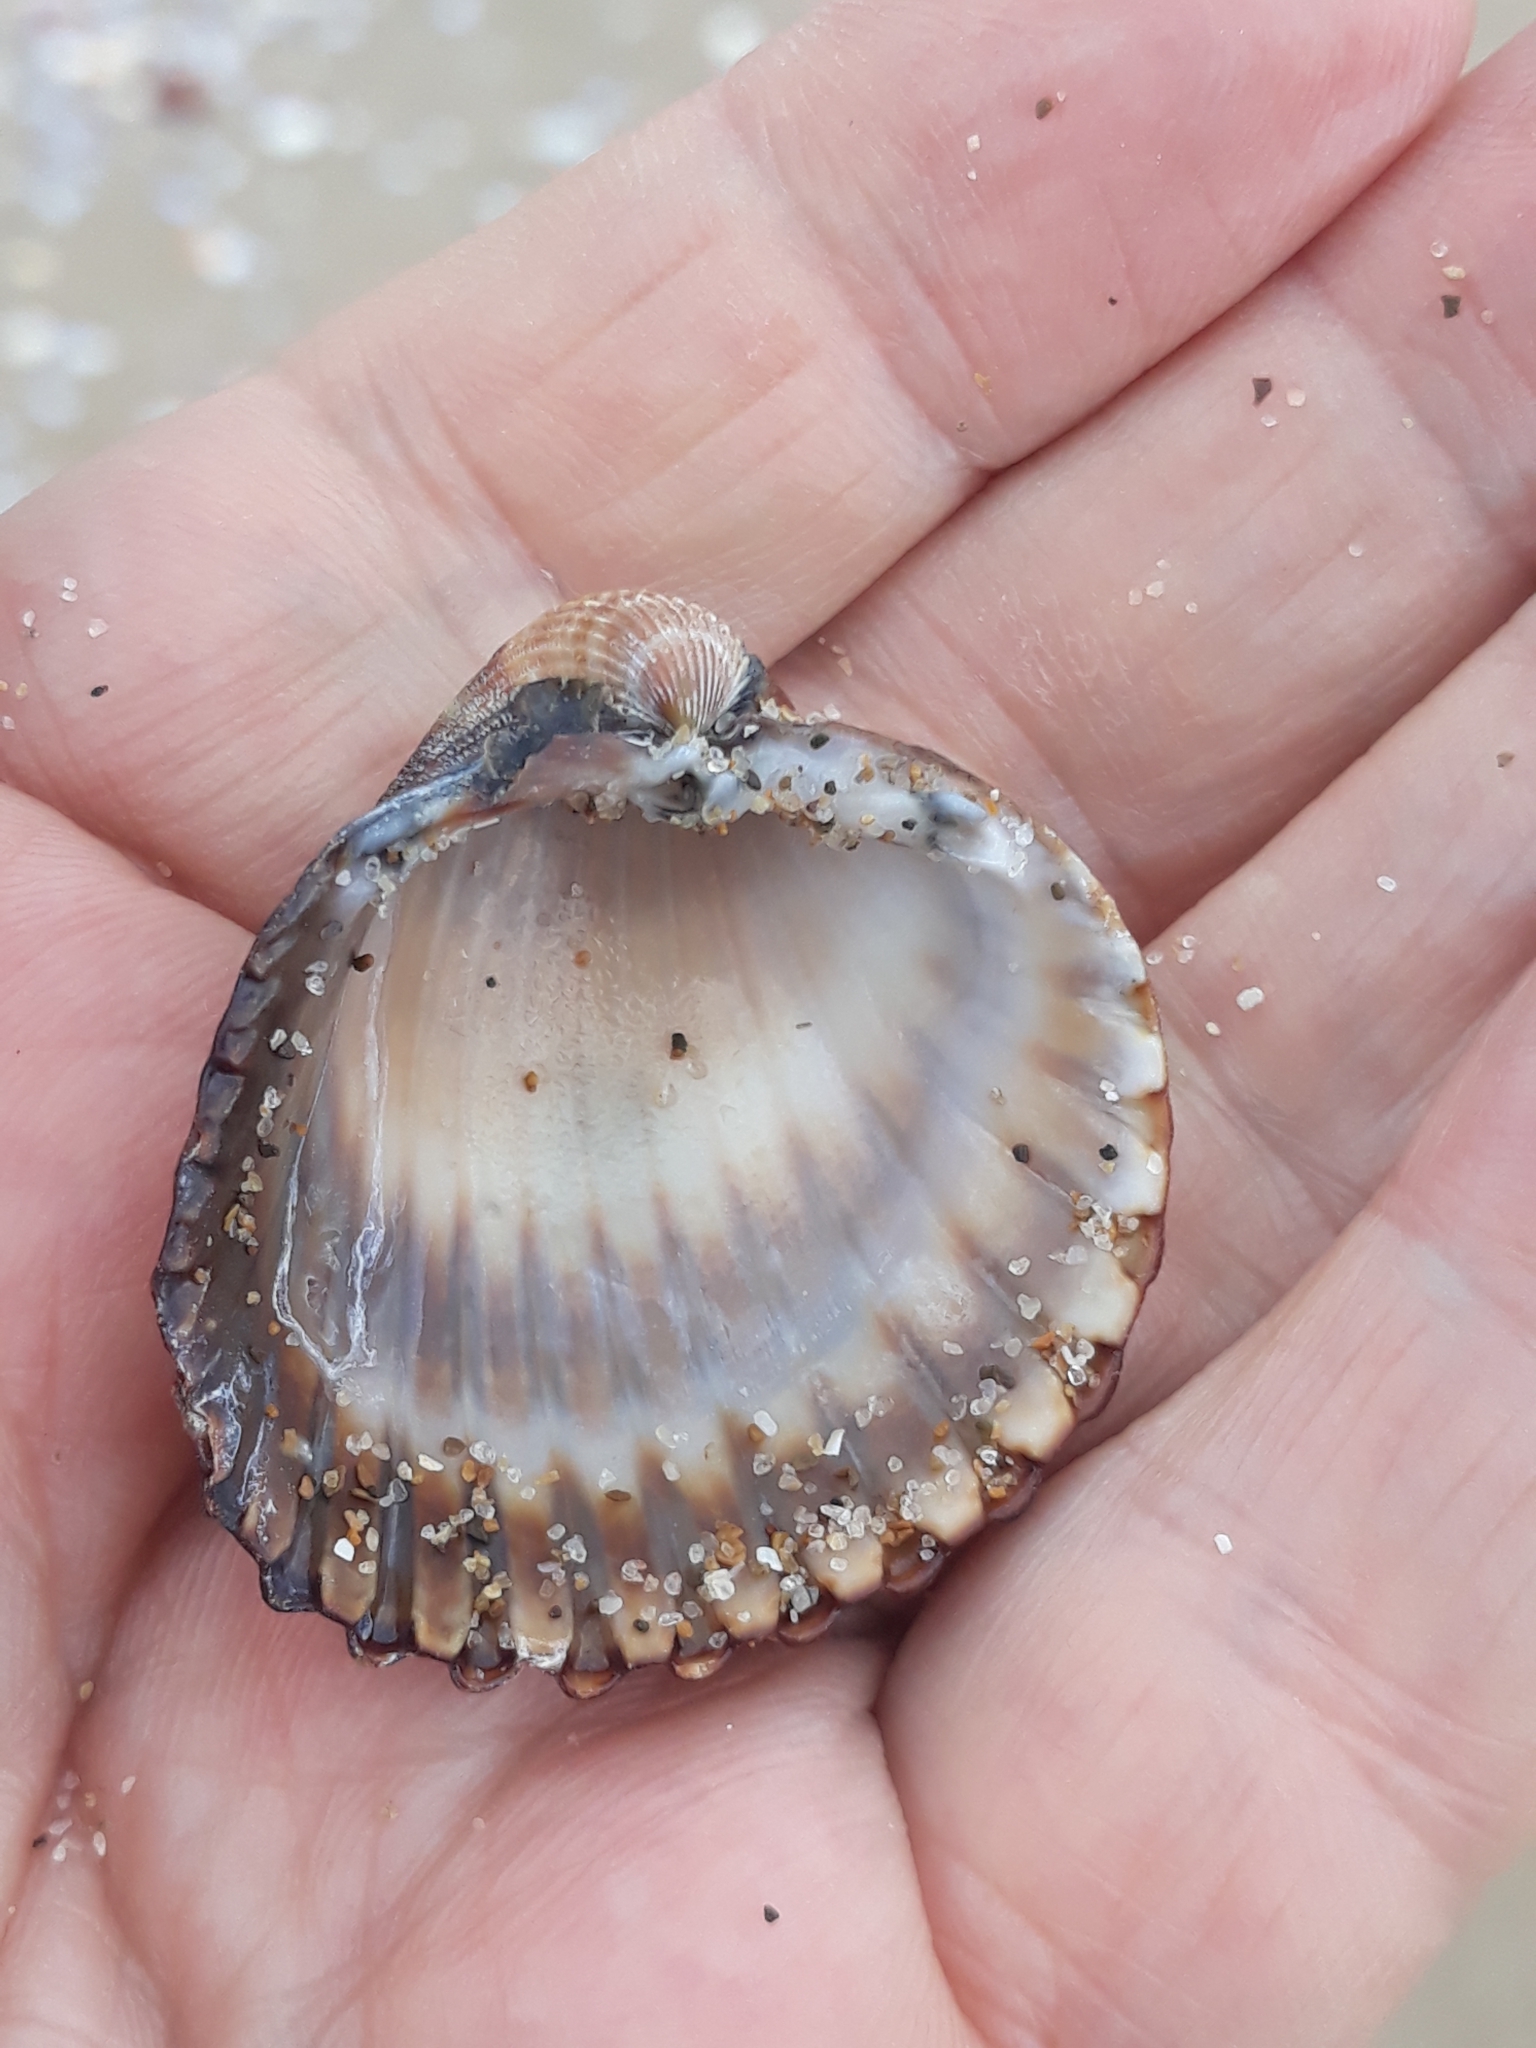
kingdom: Animalia
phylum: Mollusca
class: Bivalvia
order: Cardiida
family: Cardiidae
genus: Acanthocardia
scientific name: Acanthocardia tuberculata
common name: Rough cockle
